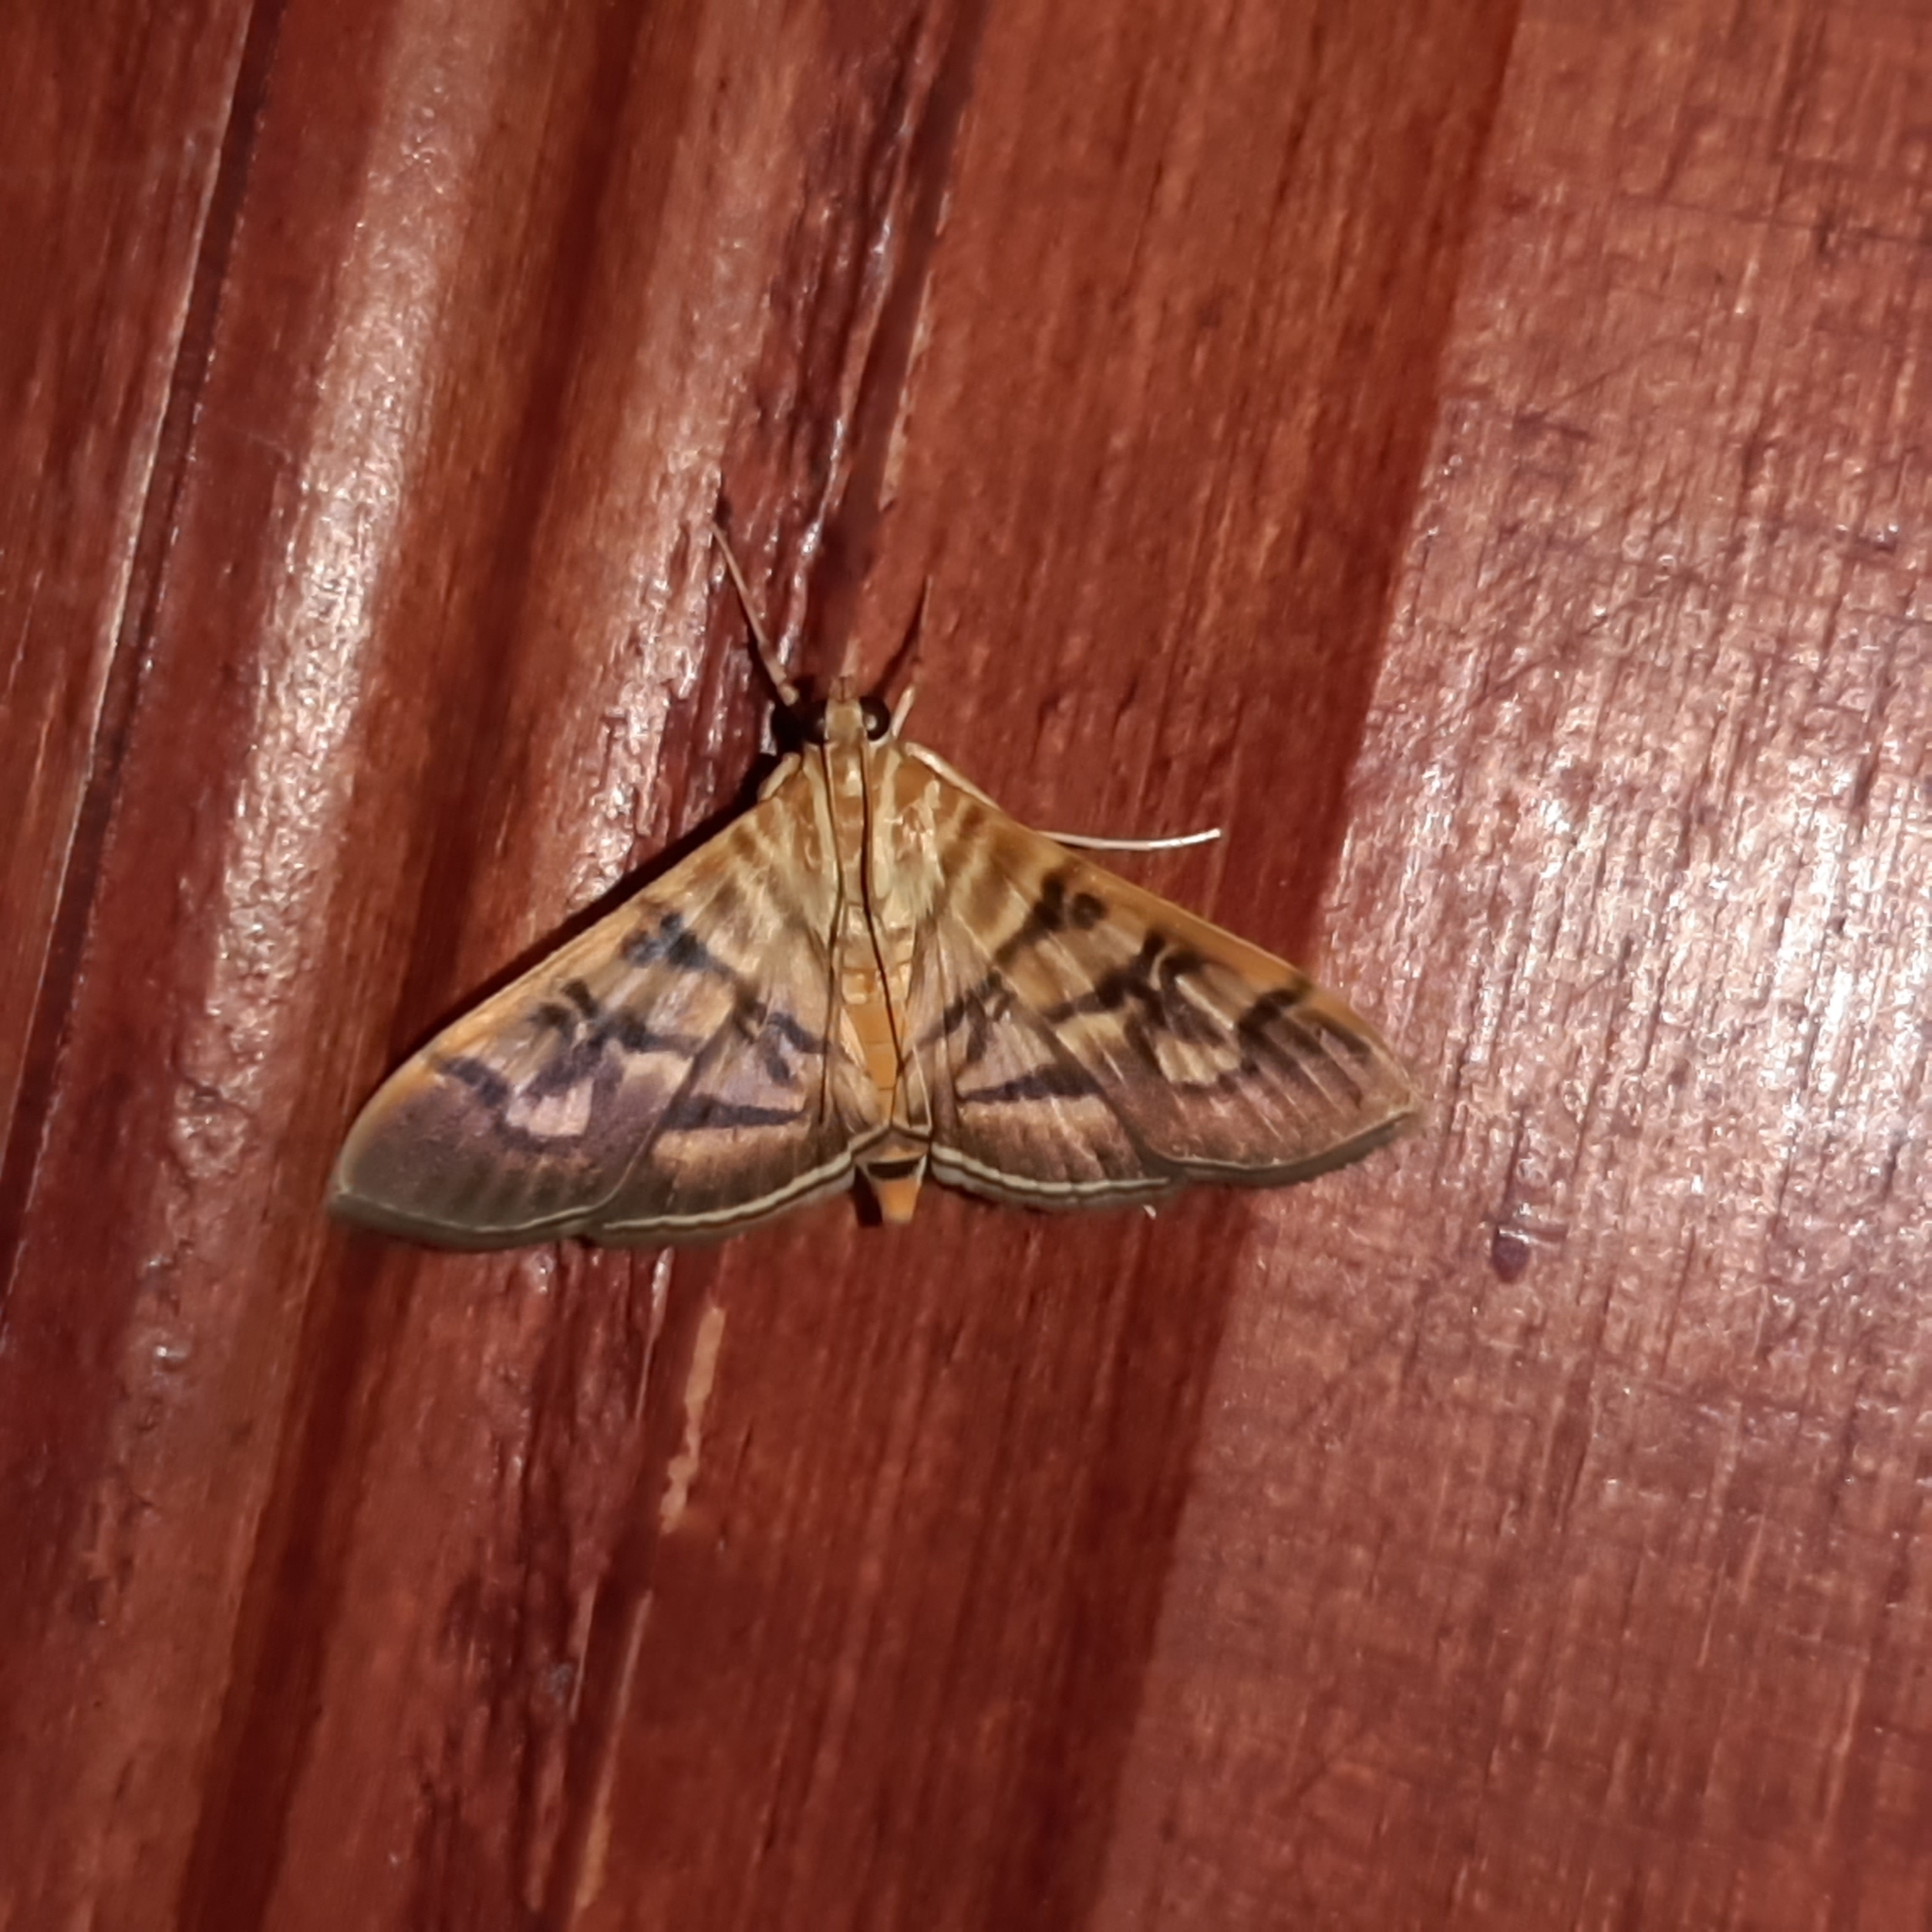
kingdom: Animalia
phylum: Arthropoda
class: Insecta
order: Lepidoptera
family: Crambidae
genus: Pilocrocis
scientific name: Pilocrocis lauralis
